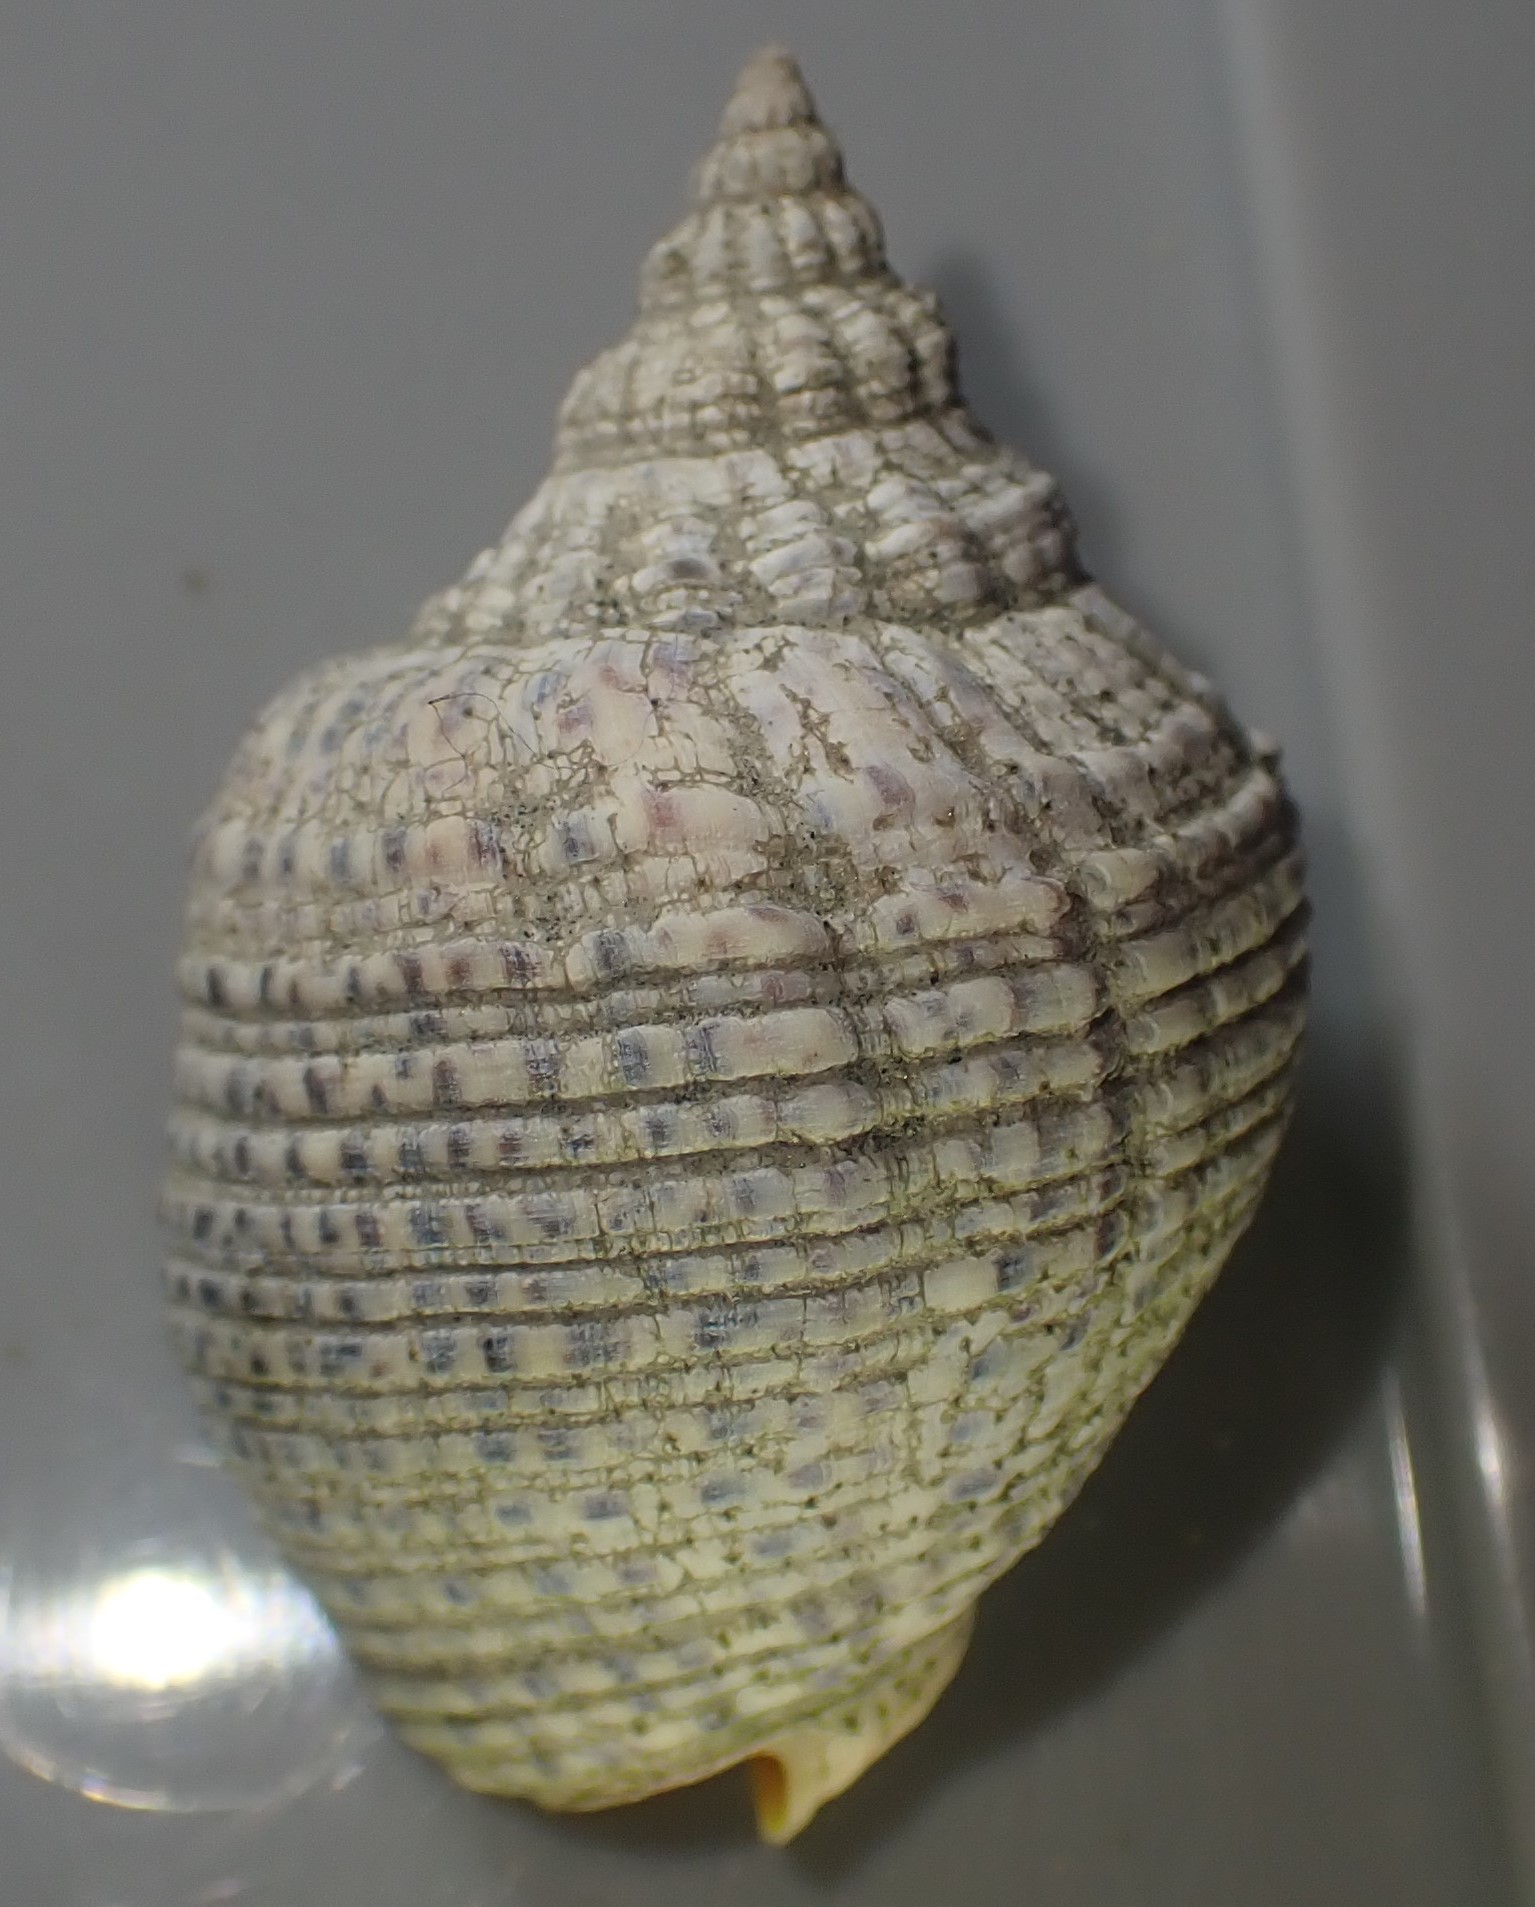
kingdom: Animalia
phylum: Mollusca
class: Gastropoda
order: Neogastropoda
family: Cominellidae
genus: Cominella
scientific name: Cominella adspersa
